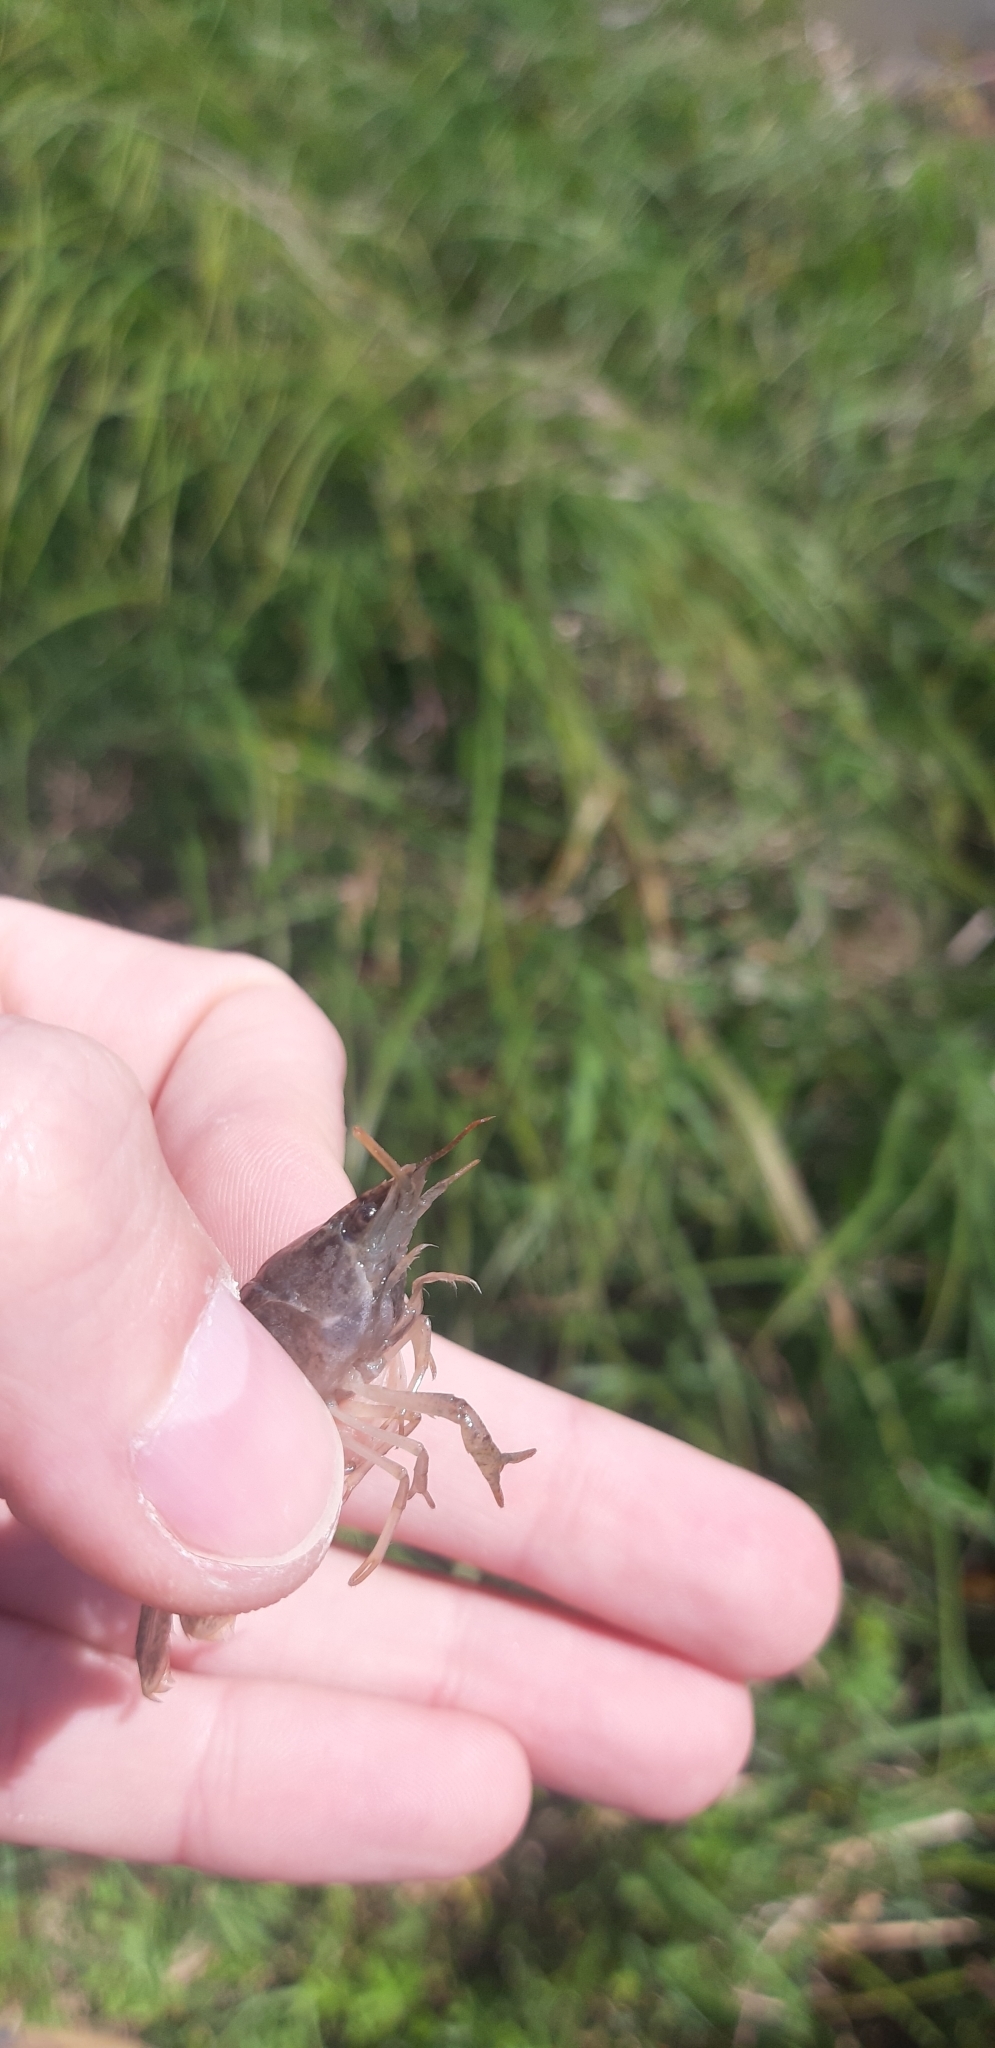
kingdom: Animalia
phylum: Arthropoda
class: Malacostraca
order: Decapoda
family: Cambaridae
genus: Procambarus
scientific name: Procambarus clarkii
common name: Red swamp crayfish
